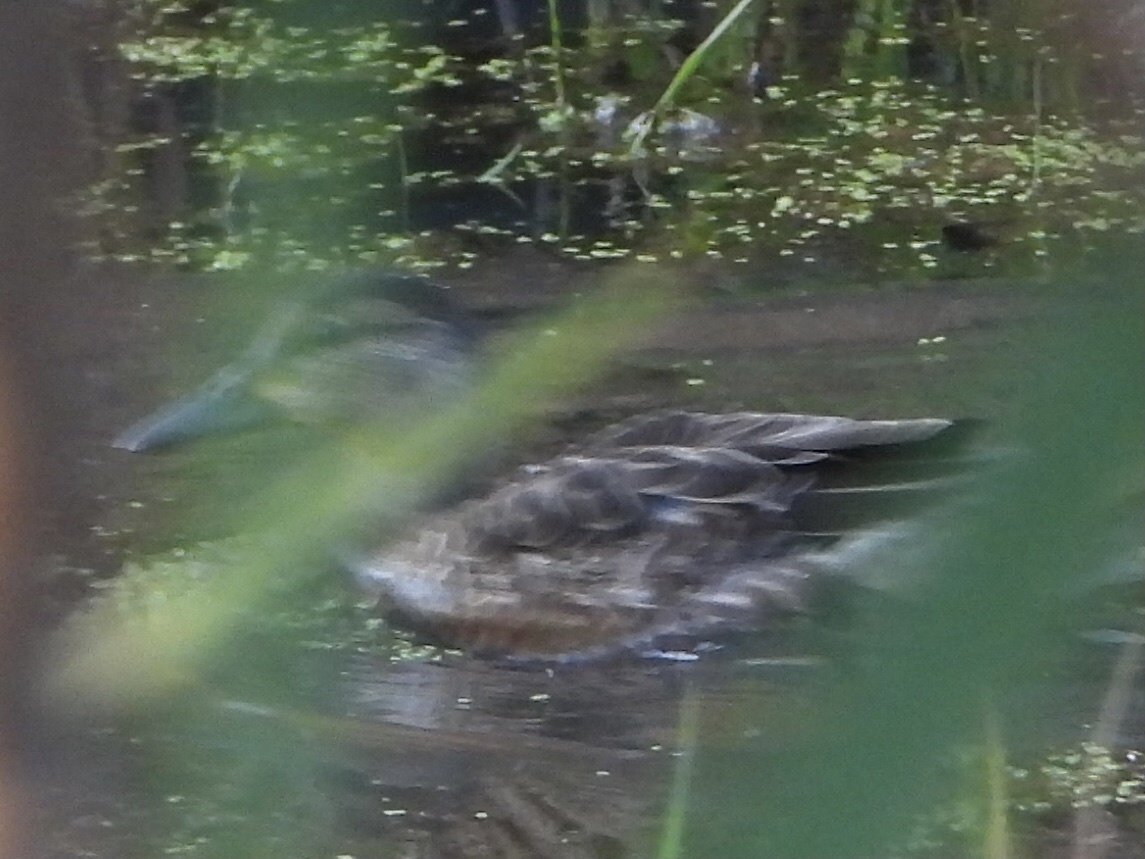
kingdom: Animalia
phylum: Chordata
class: Aves
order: Anseriformes
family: Anatidae
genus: Spatula
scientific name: Spatula discors
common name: Blue-winged teal
